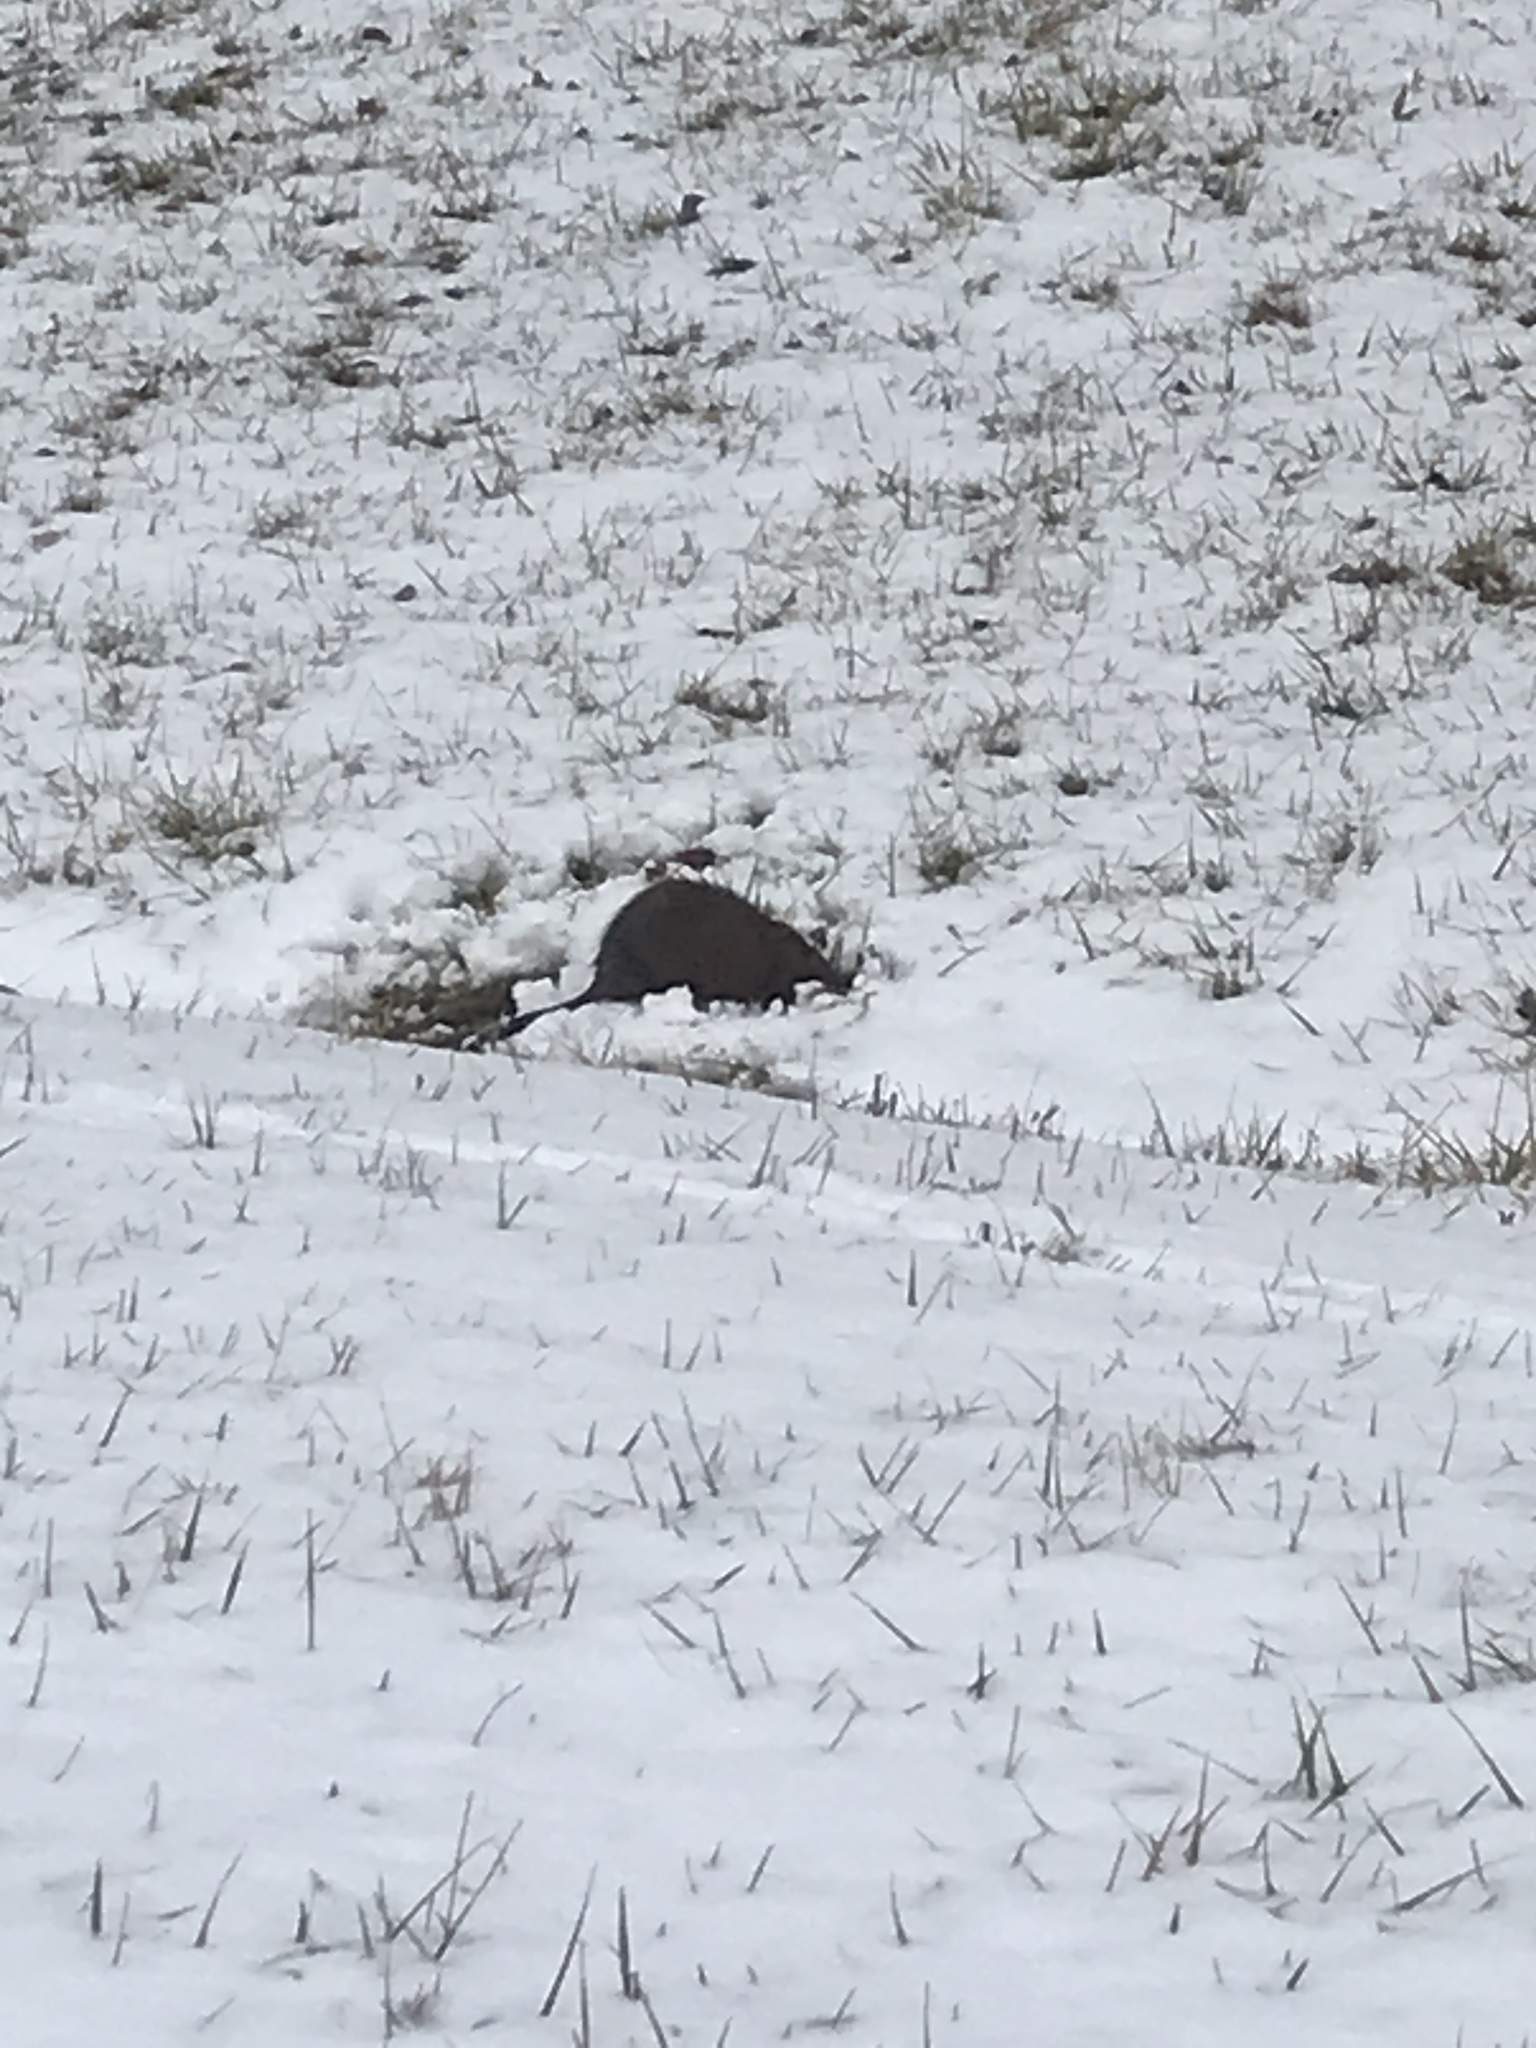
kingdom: Animalia
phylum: Chordata
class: Mammalia
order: Rodentia
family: Cricetidae
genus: Ondatra
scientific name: Ondatra zibethicus
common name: Muskrat
